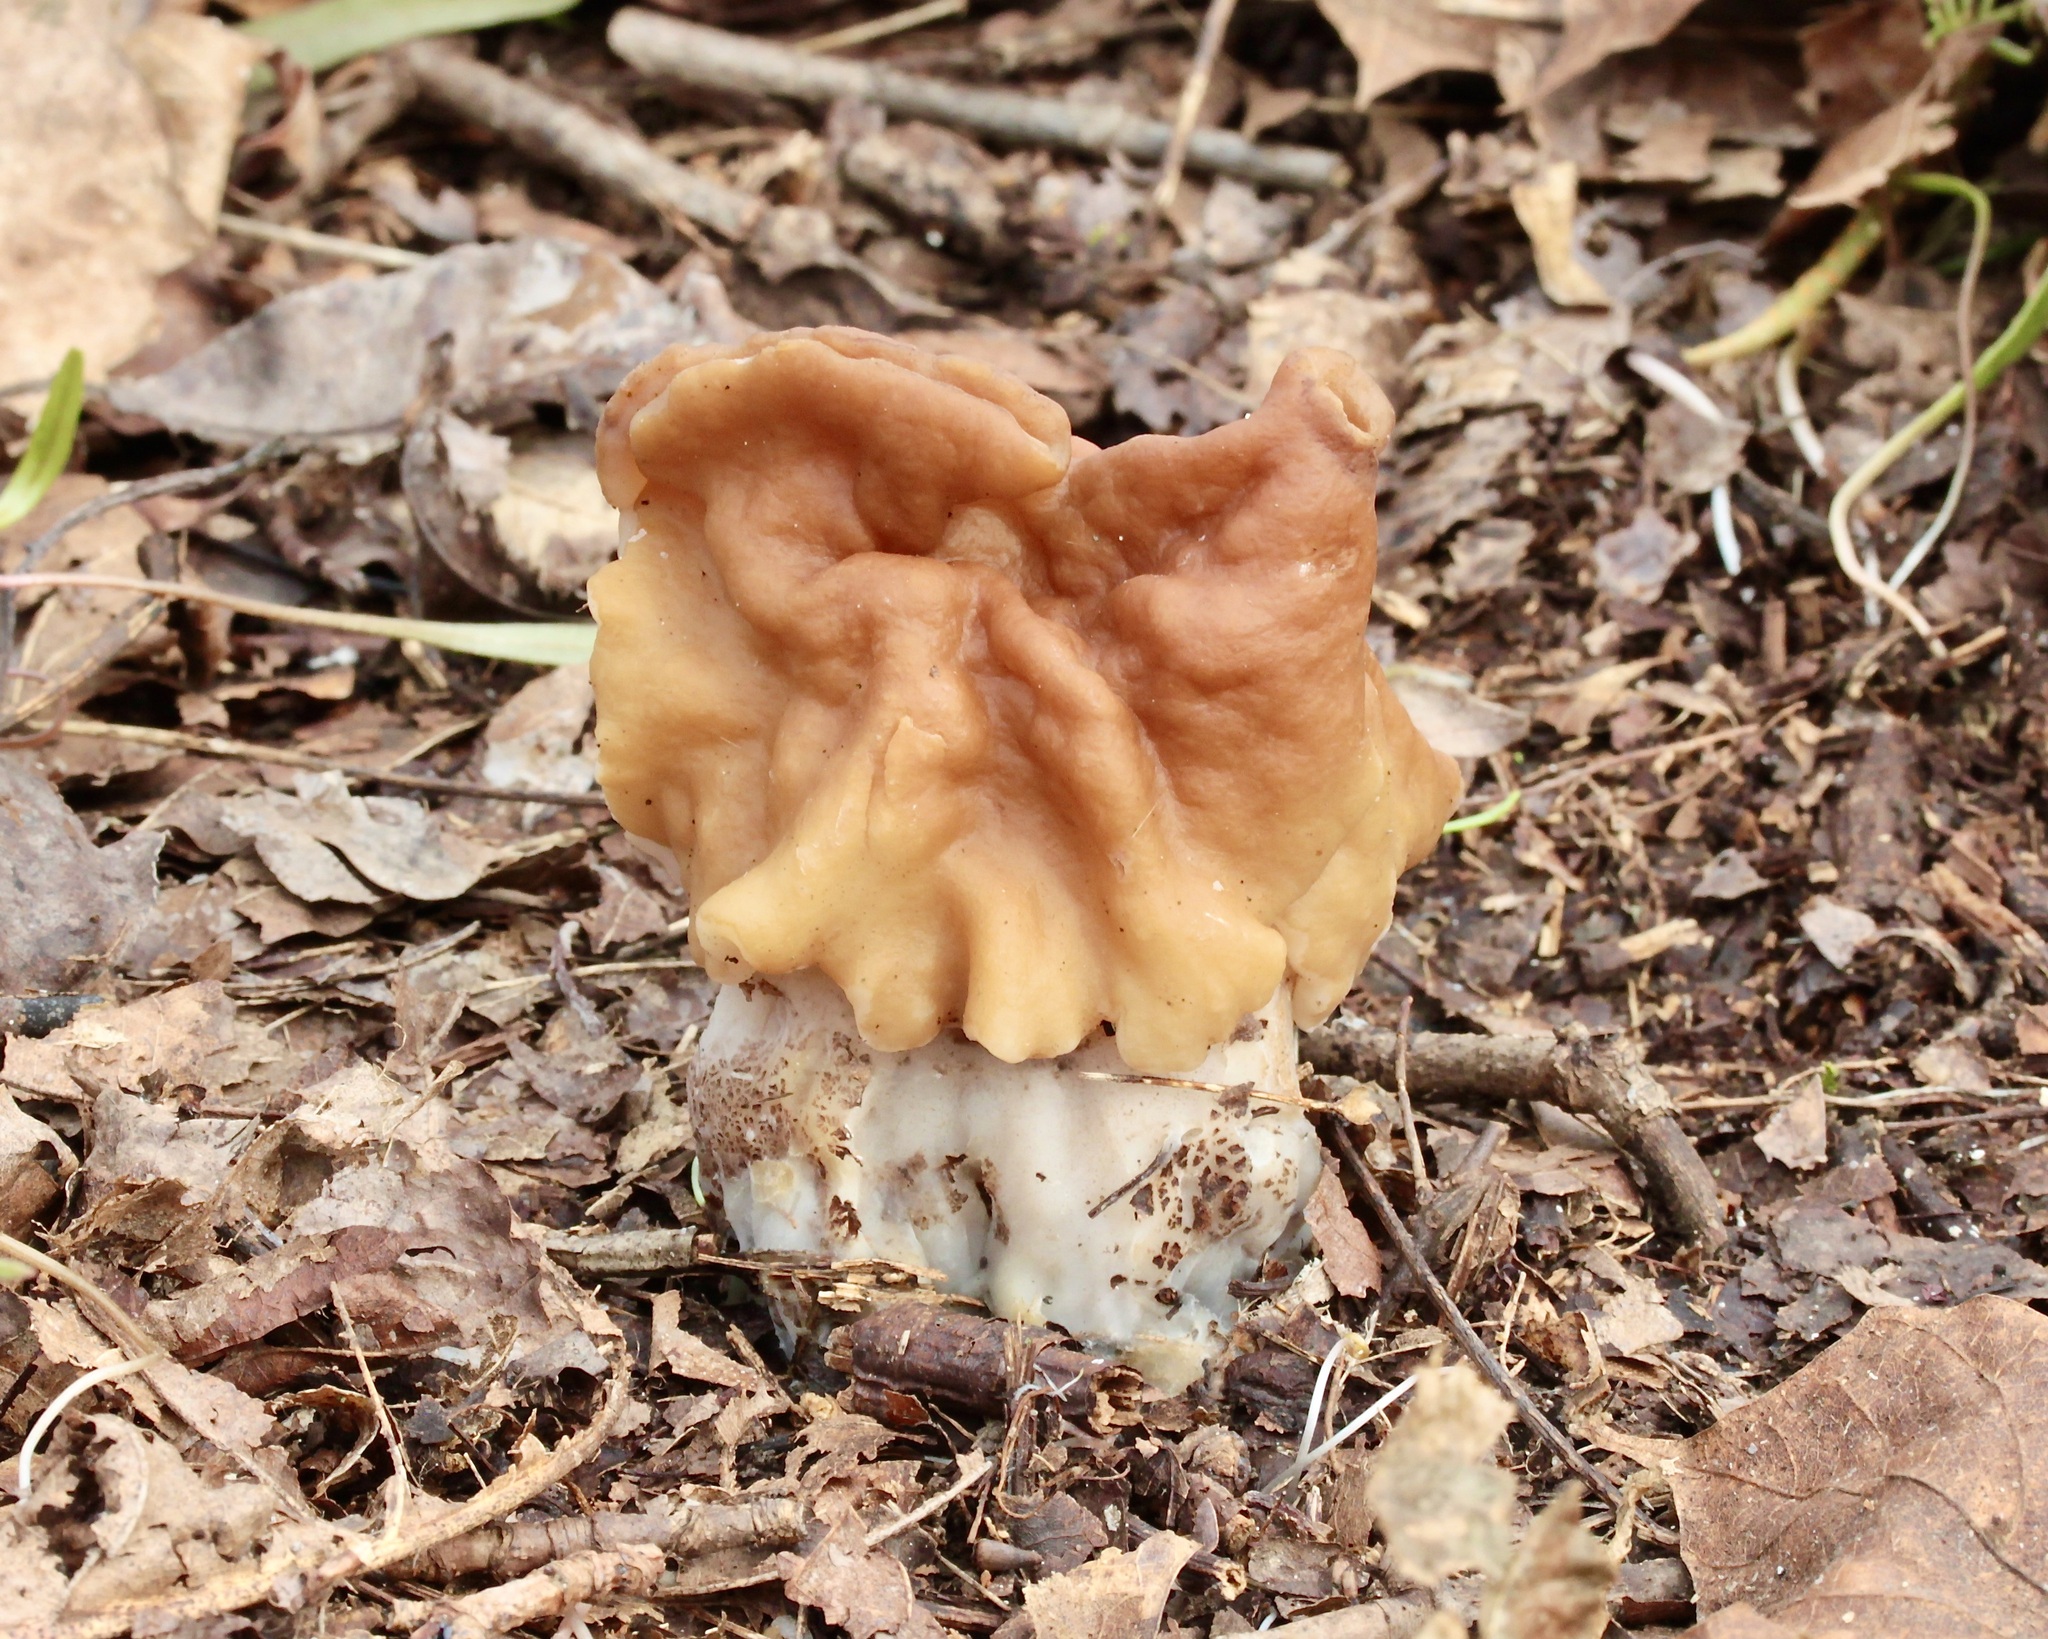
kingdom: Fungi
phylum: Ascomycota
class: Pezizomycetes
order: Pezizales
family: Discinaceae
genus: Gyromitra
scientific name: Gyromitra korfii
